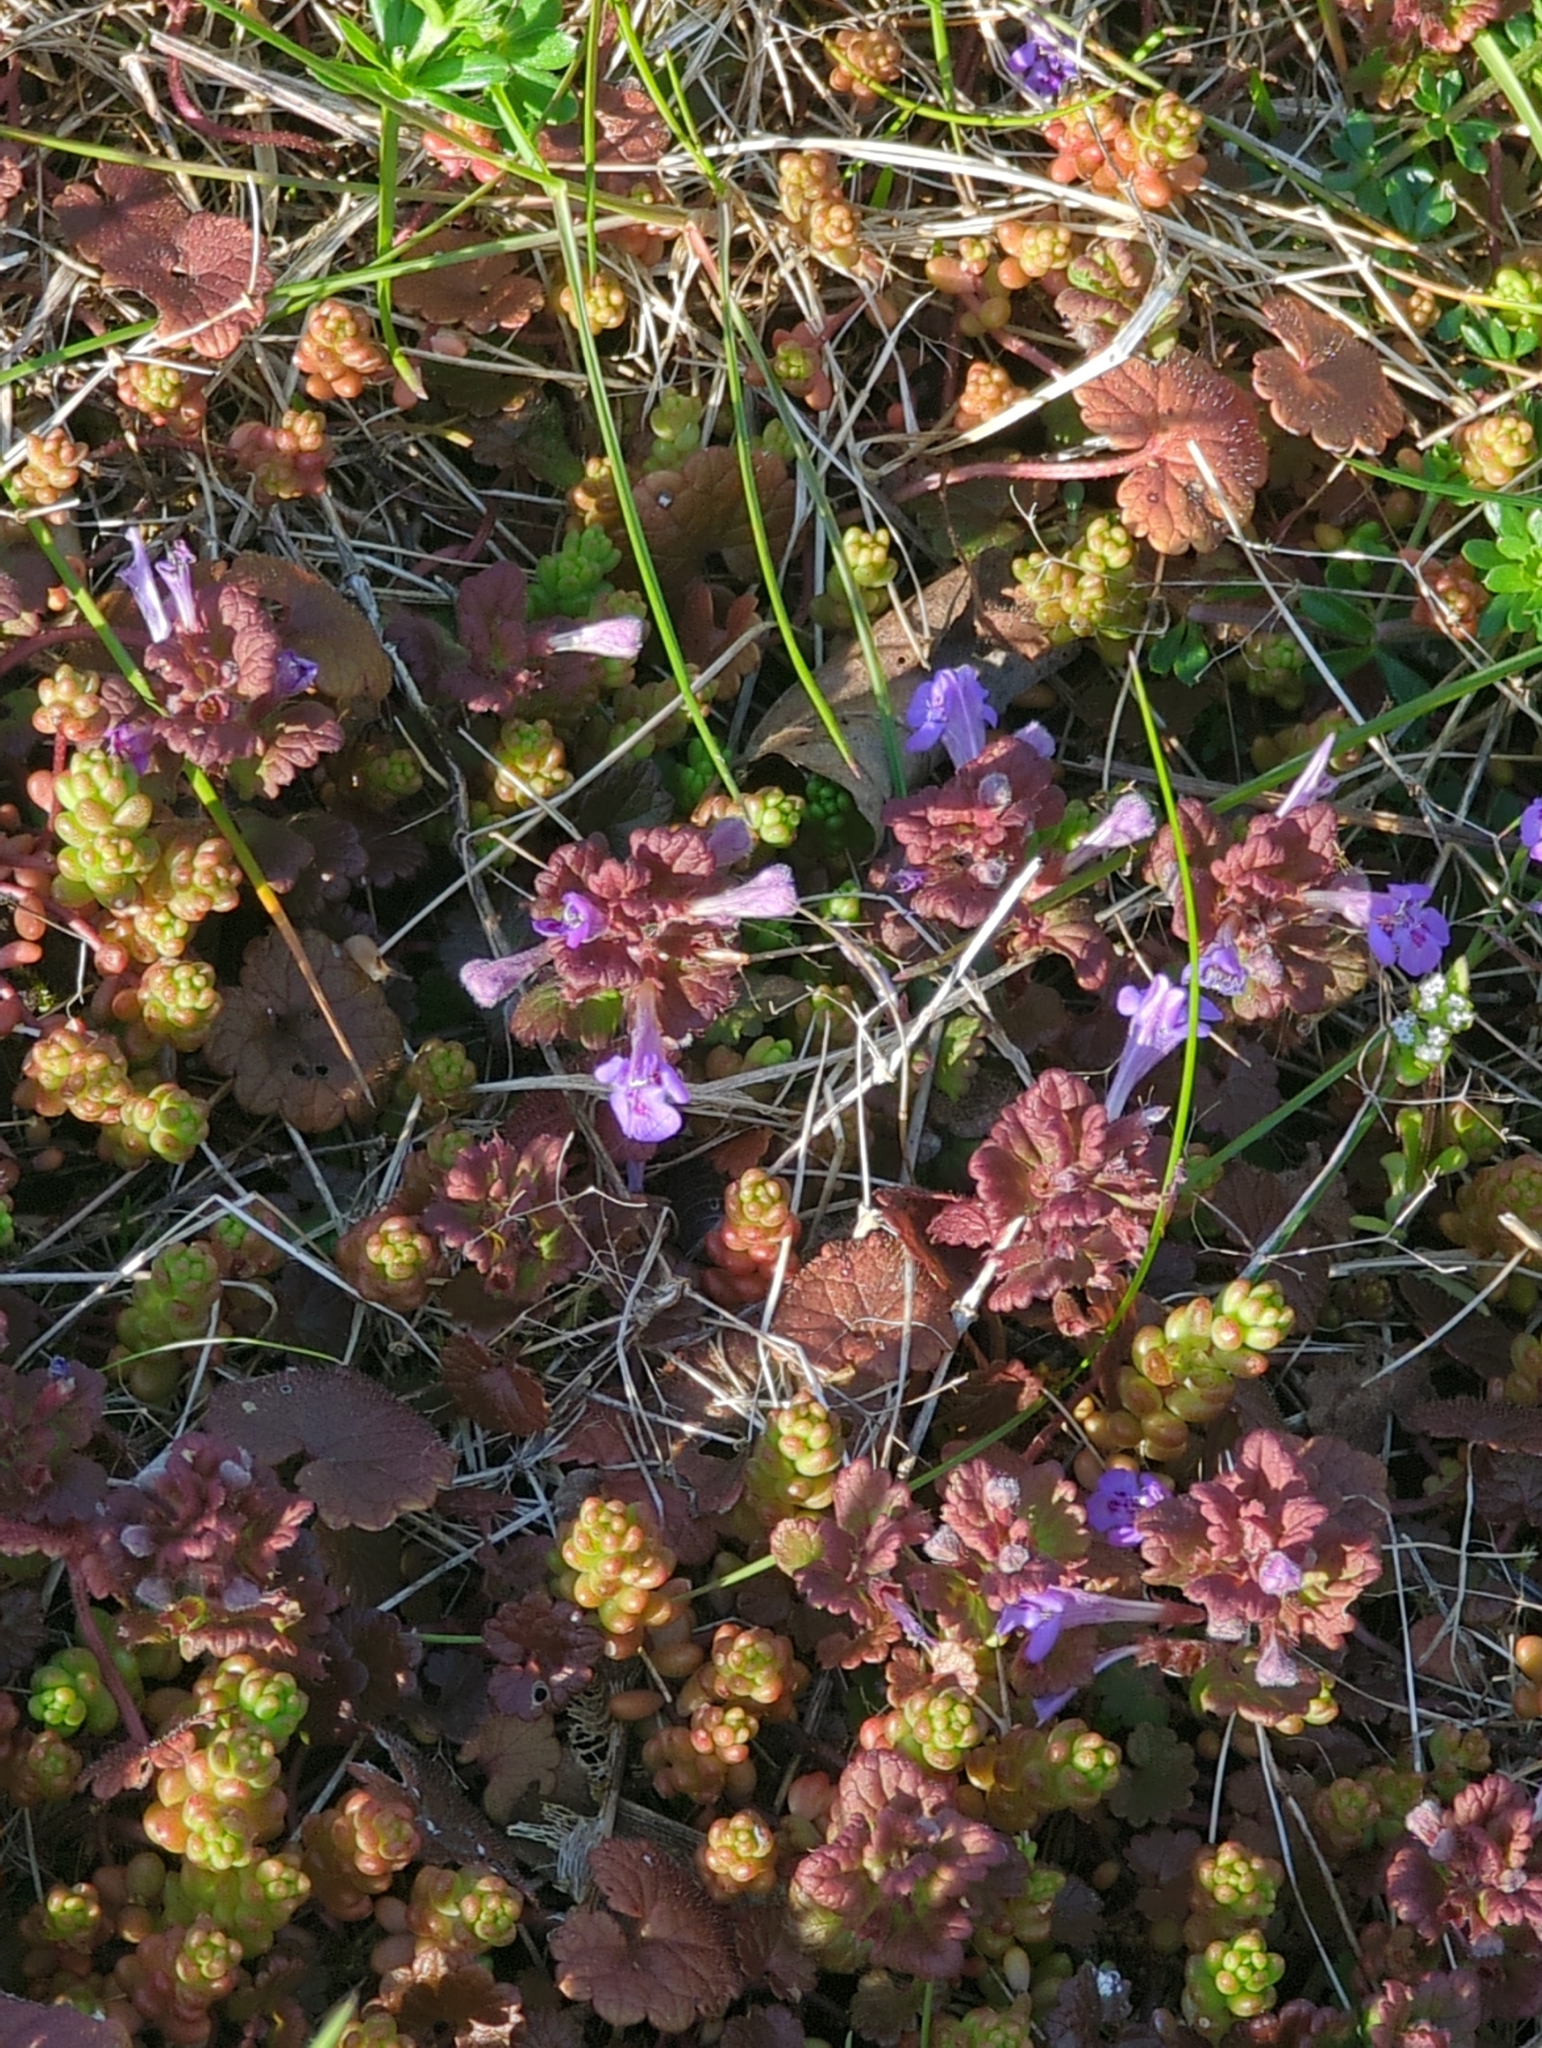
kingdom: Plantae
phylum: Tracheophyta
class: Magnoliopsida
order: Lamiales
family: Lamiaceae
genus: Glechoma
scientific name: Glechoma hederacea
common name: Ground ivy
